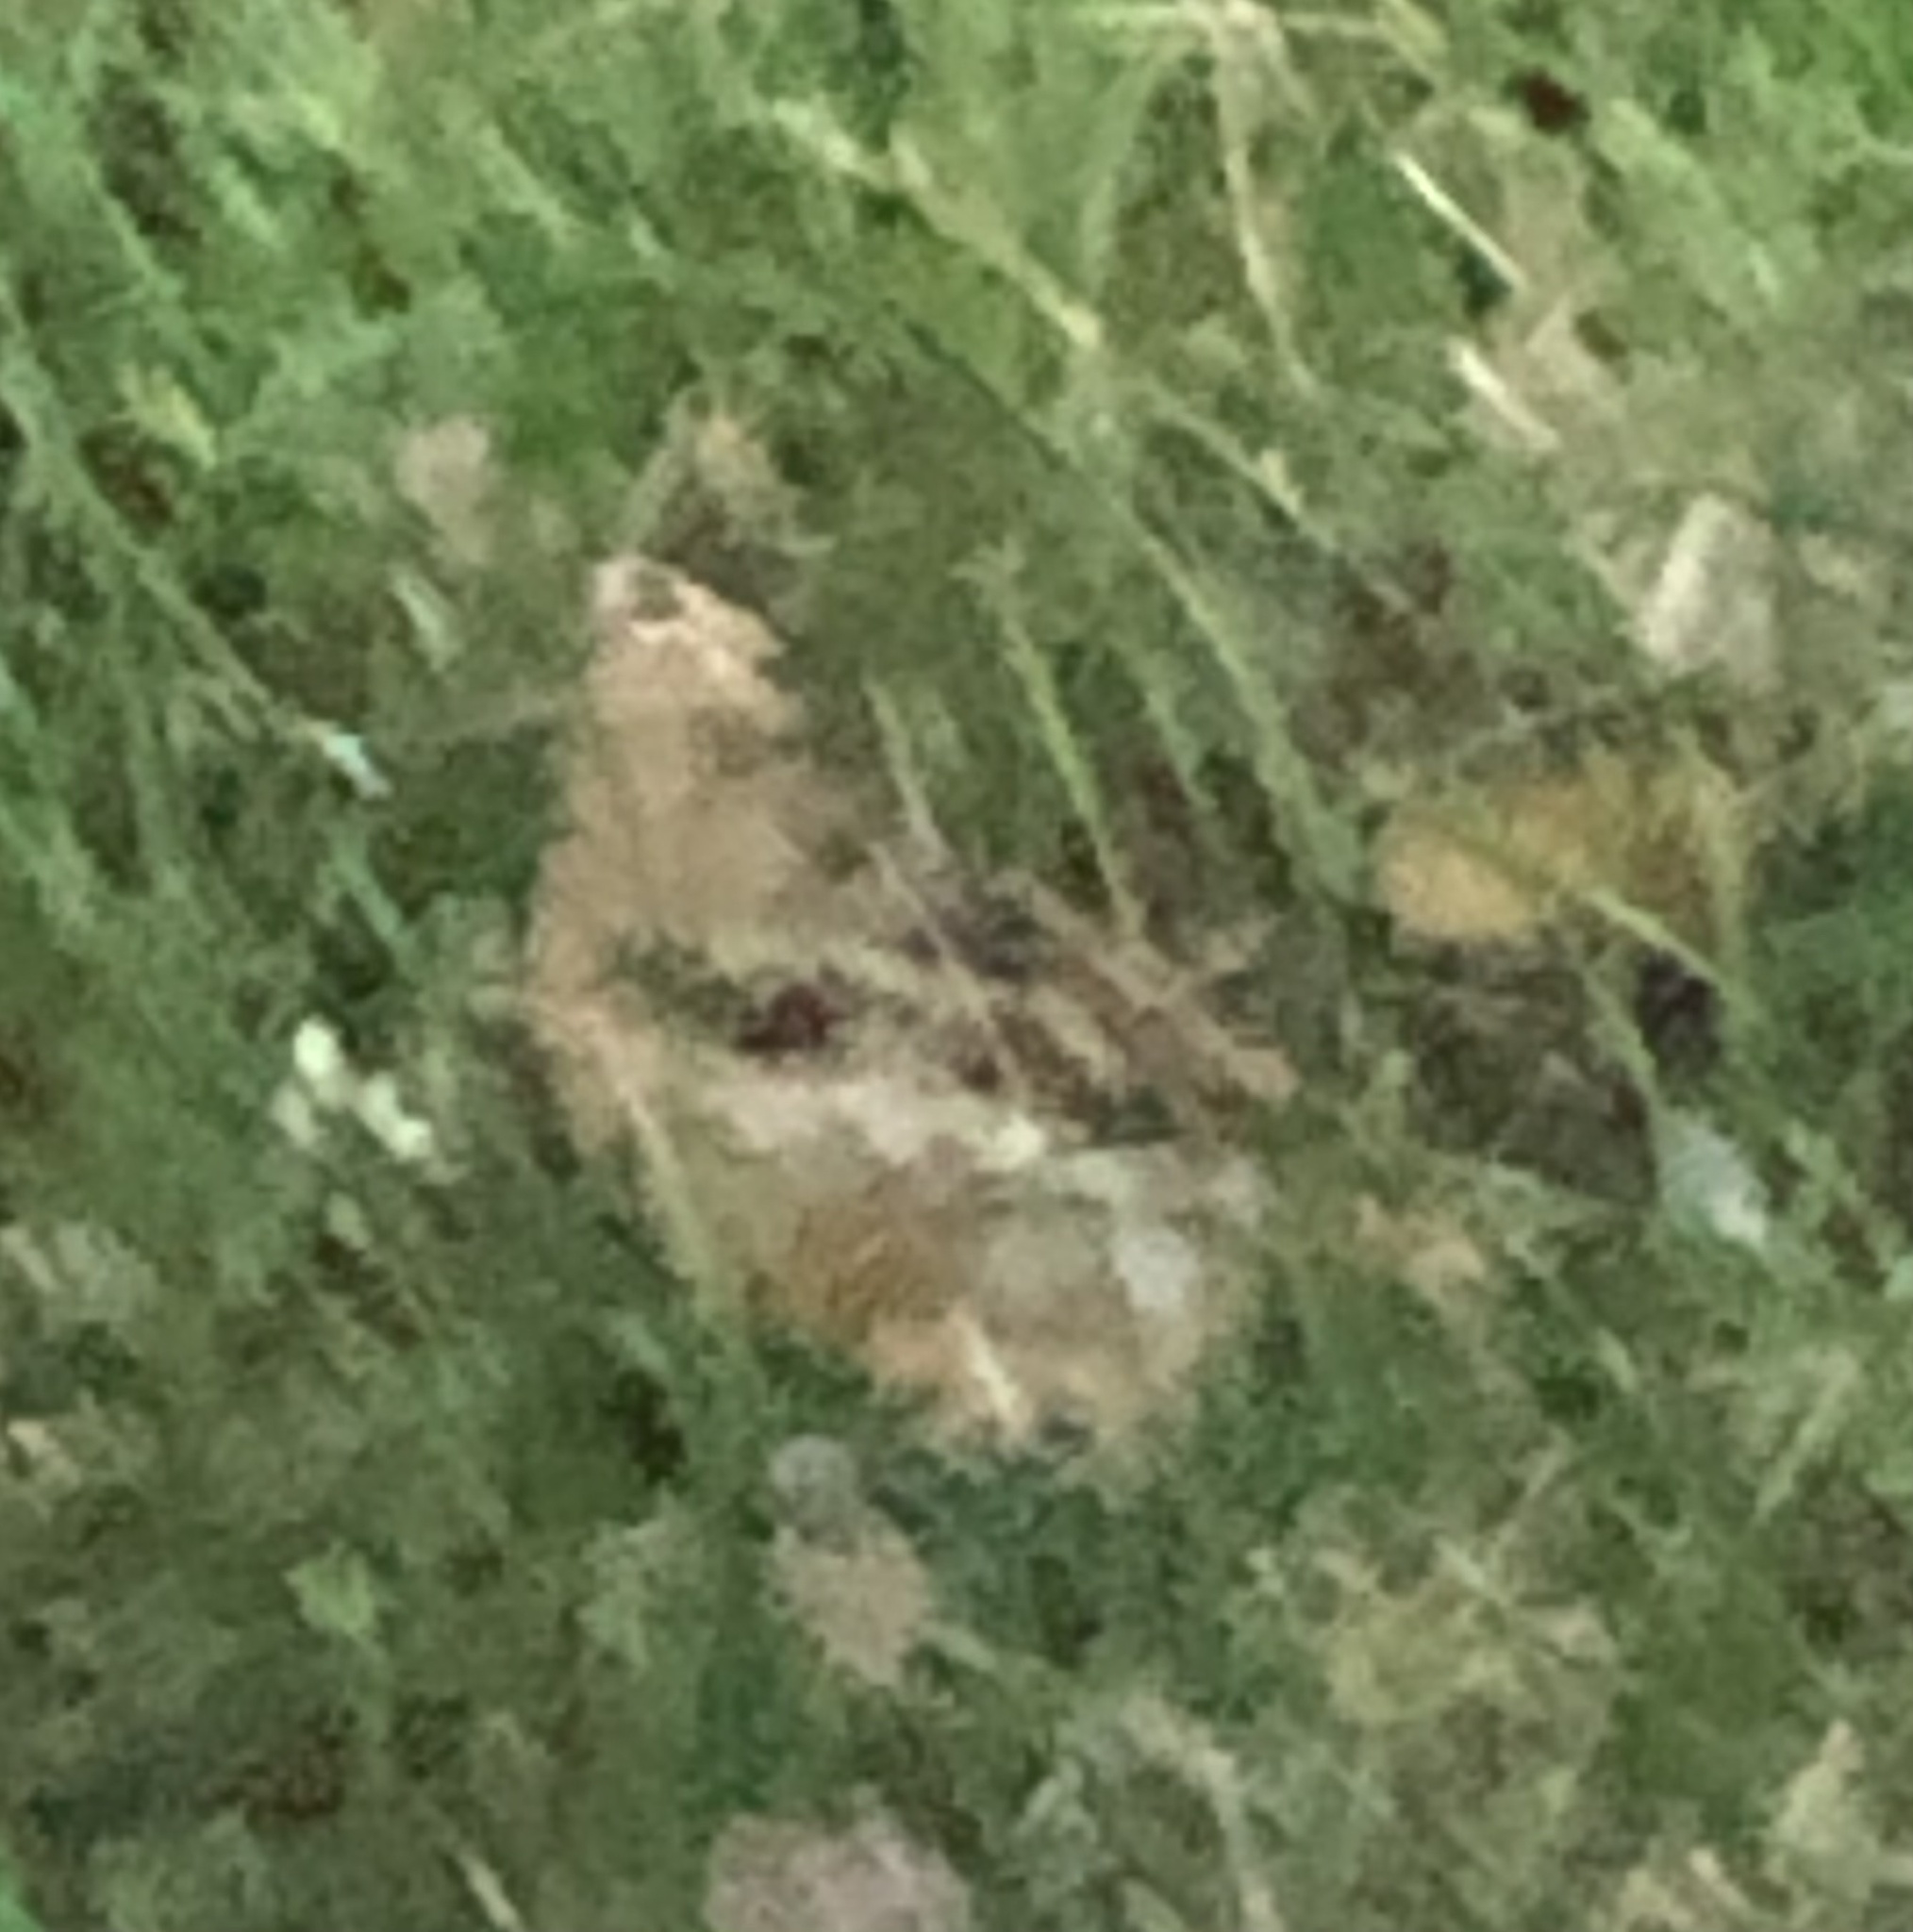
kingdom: Animalia
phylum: Chordata
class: Aves
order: Charadriiformes
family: Scolopacidae
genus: Scolopax
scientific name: Scolopax minor
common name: American woodcock
